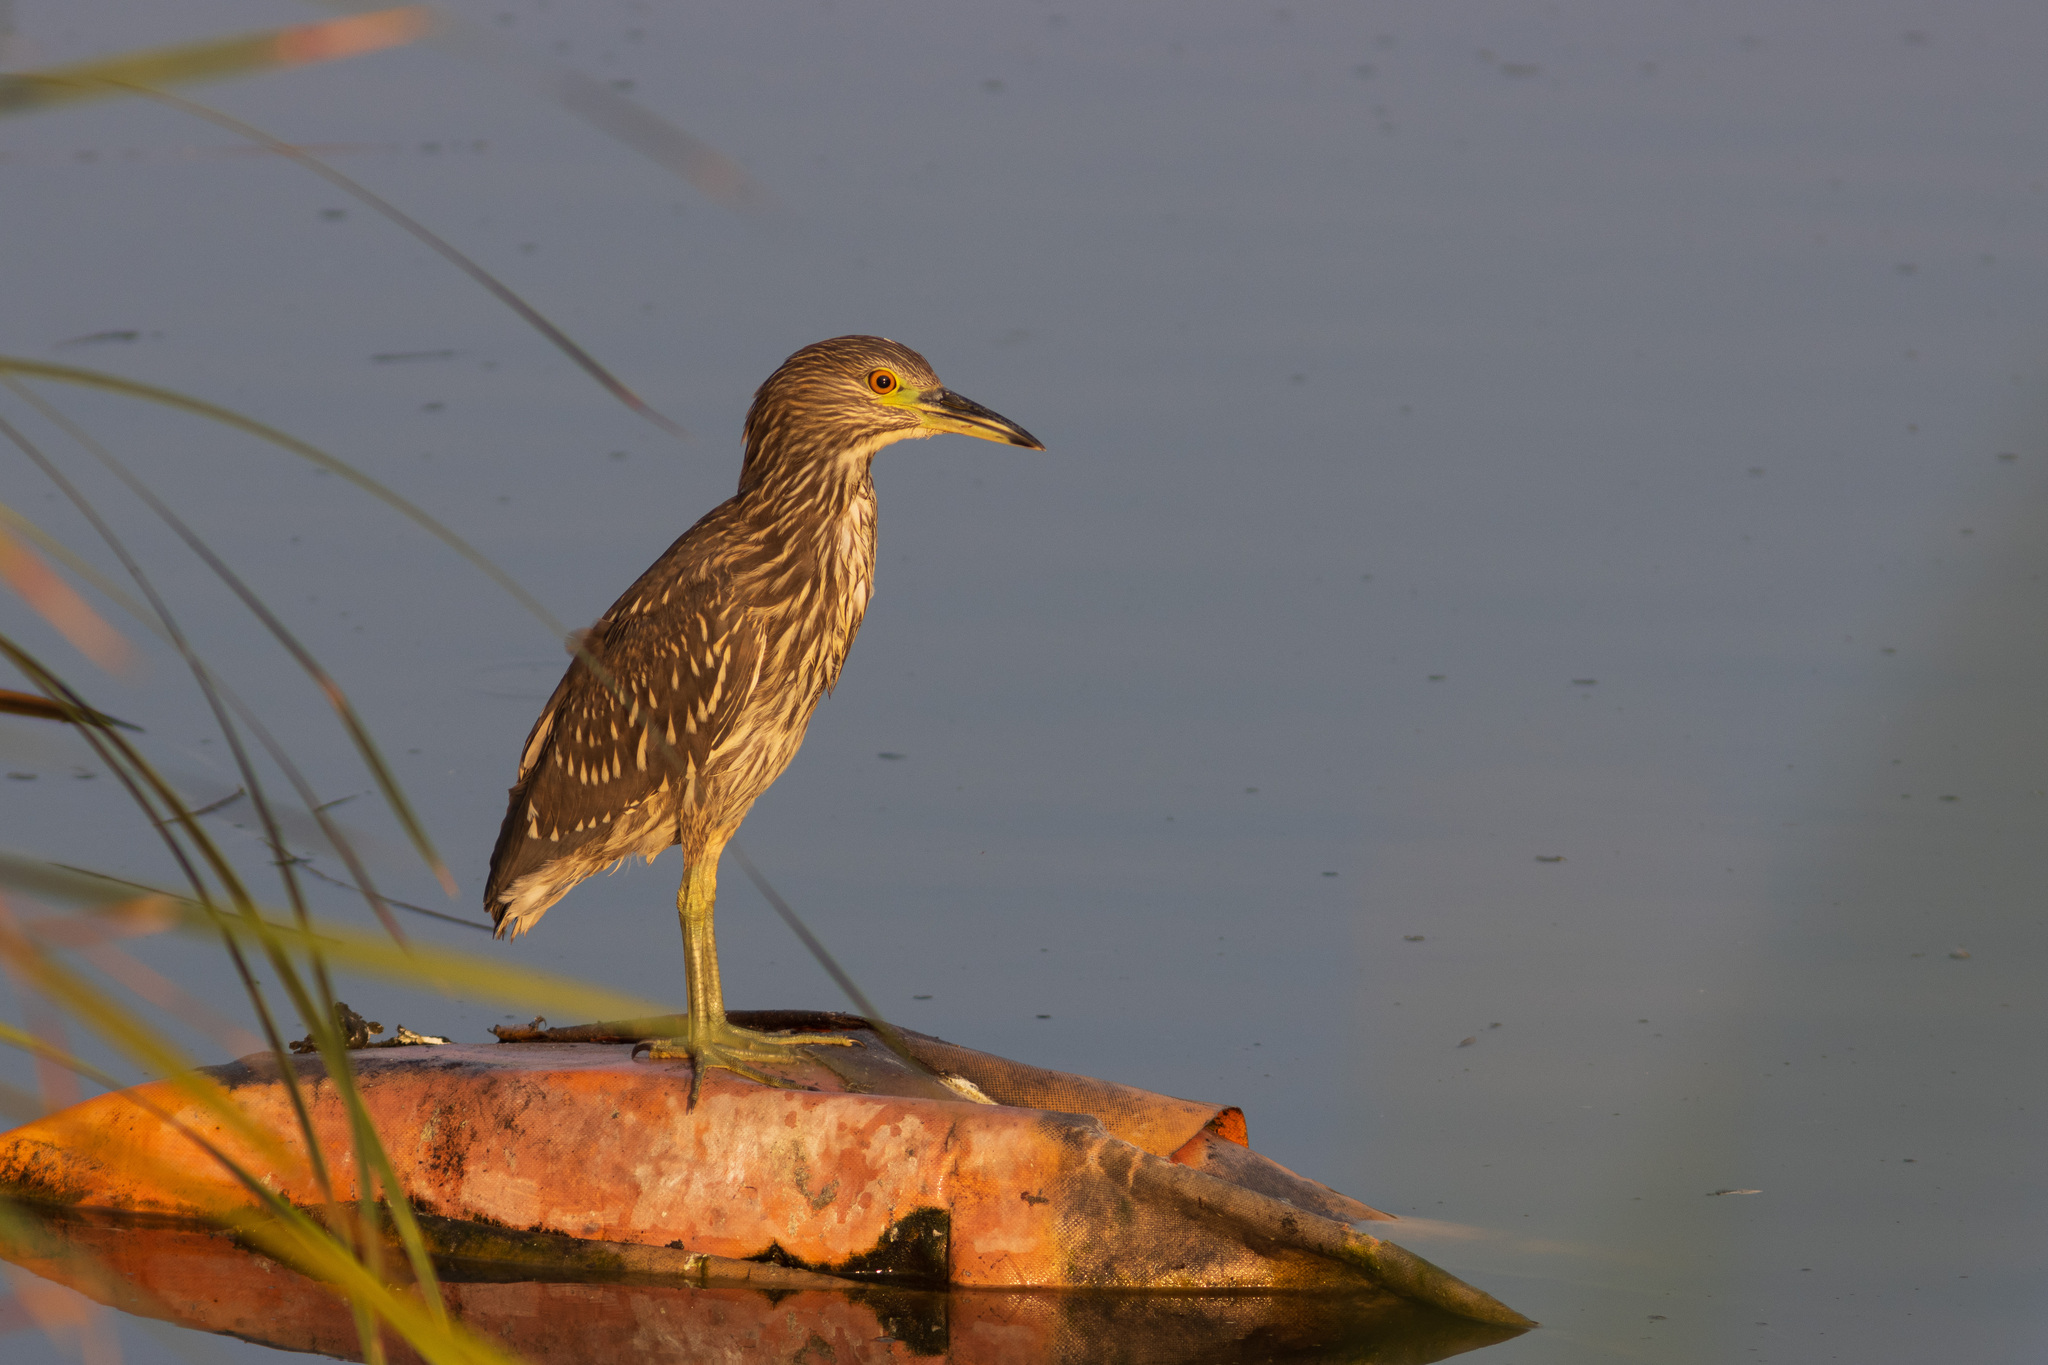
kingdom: Animalia
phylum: Chordata
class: Aves
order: Pelecaniformes
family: Ardeidae
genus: Nycticorax
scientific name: Nycticorax nycticorax
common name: Black-crowned night heron
